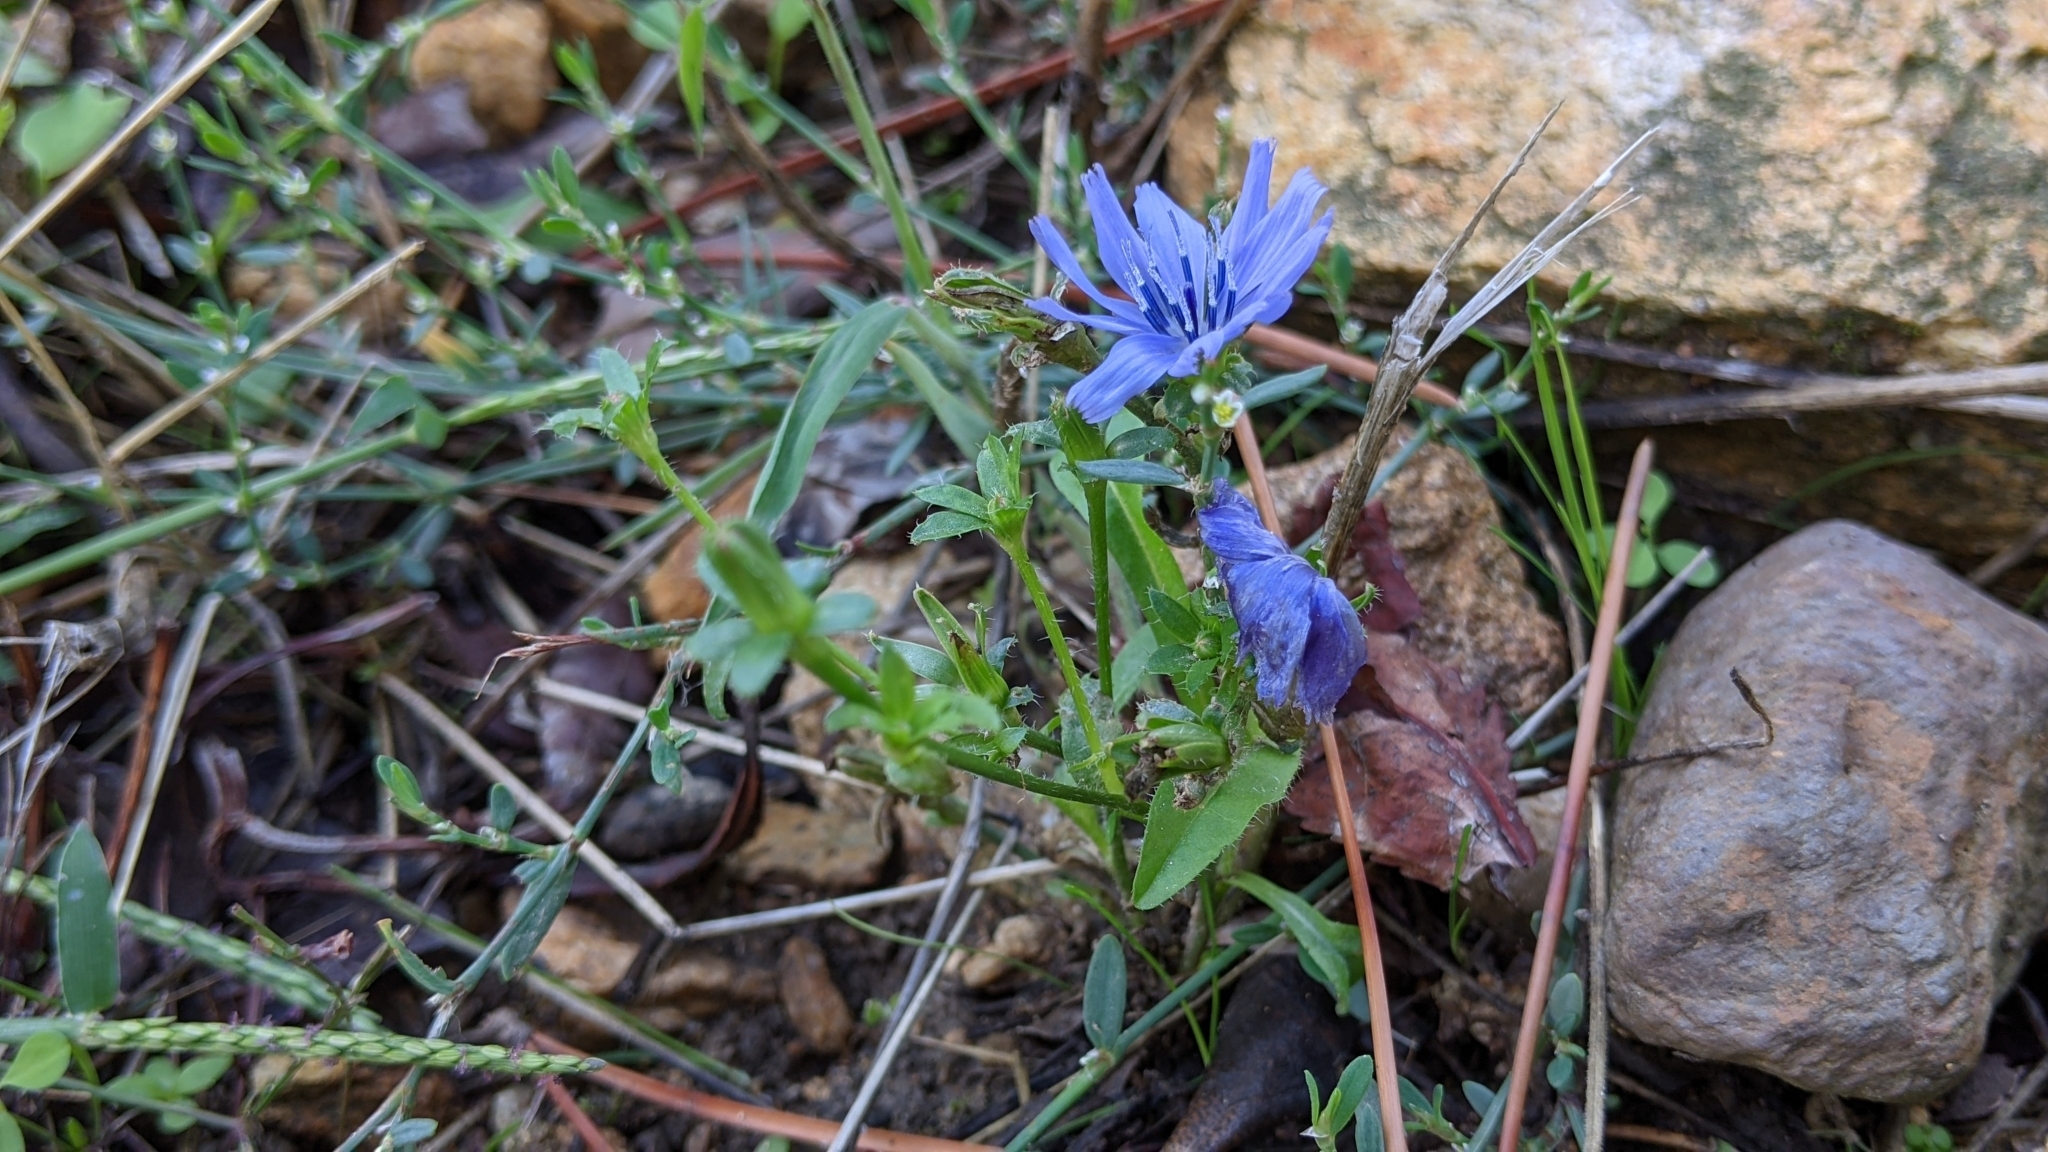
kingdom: Plantae
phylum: Tracheophyta
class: Magnoliopsida
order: Asterales
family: Asteraceae
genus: Cichorium
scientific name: Cichorium intybus
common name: Chicory
